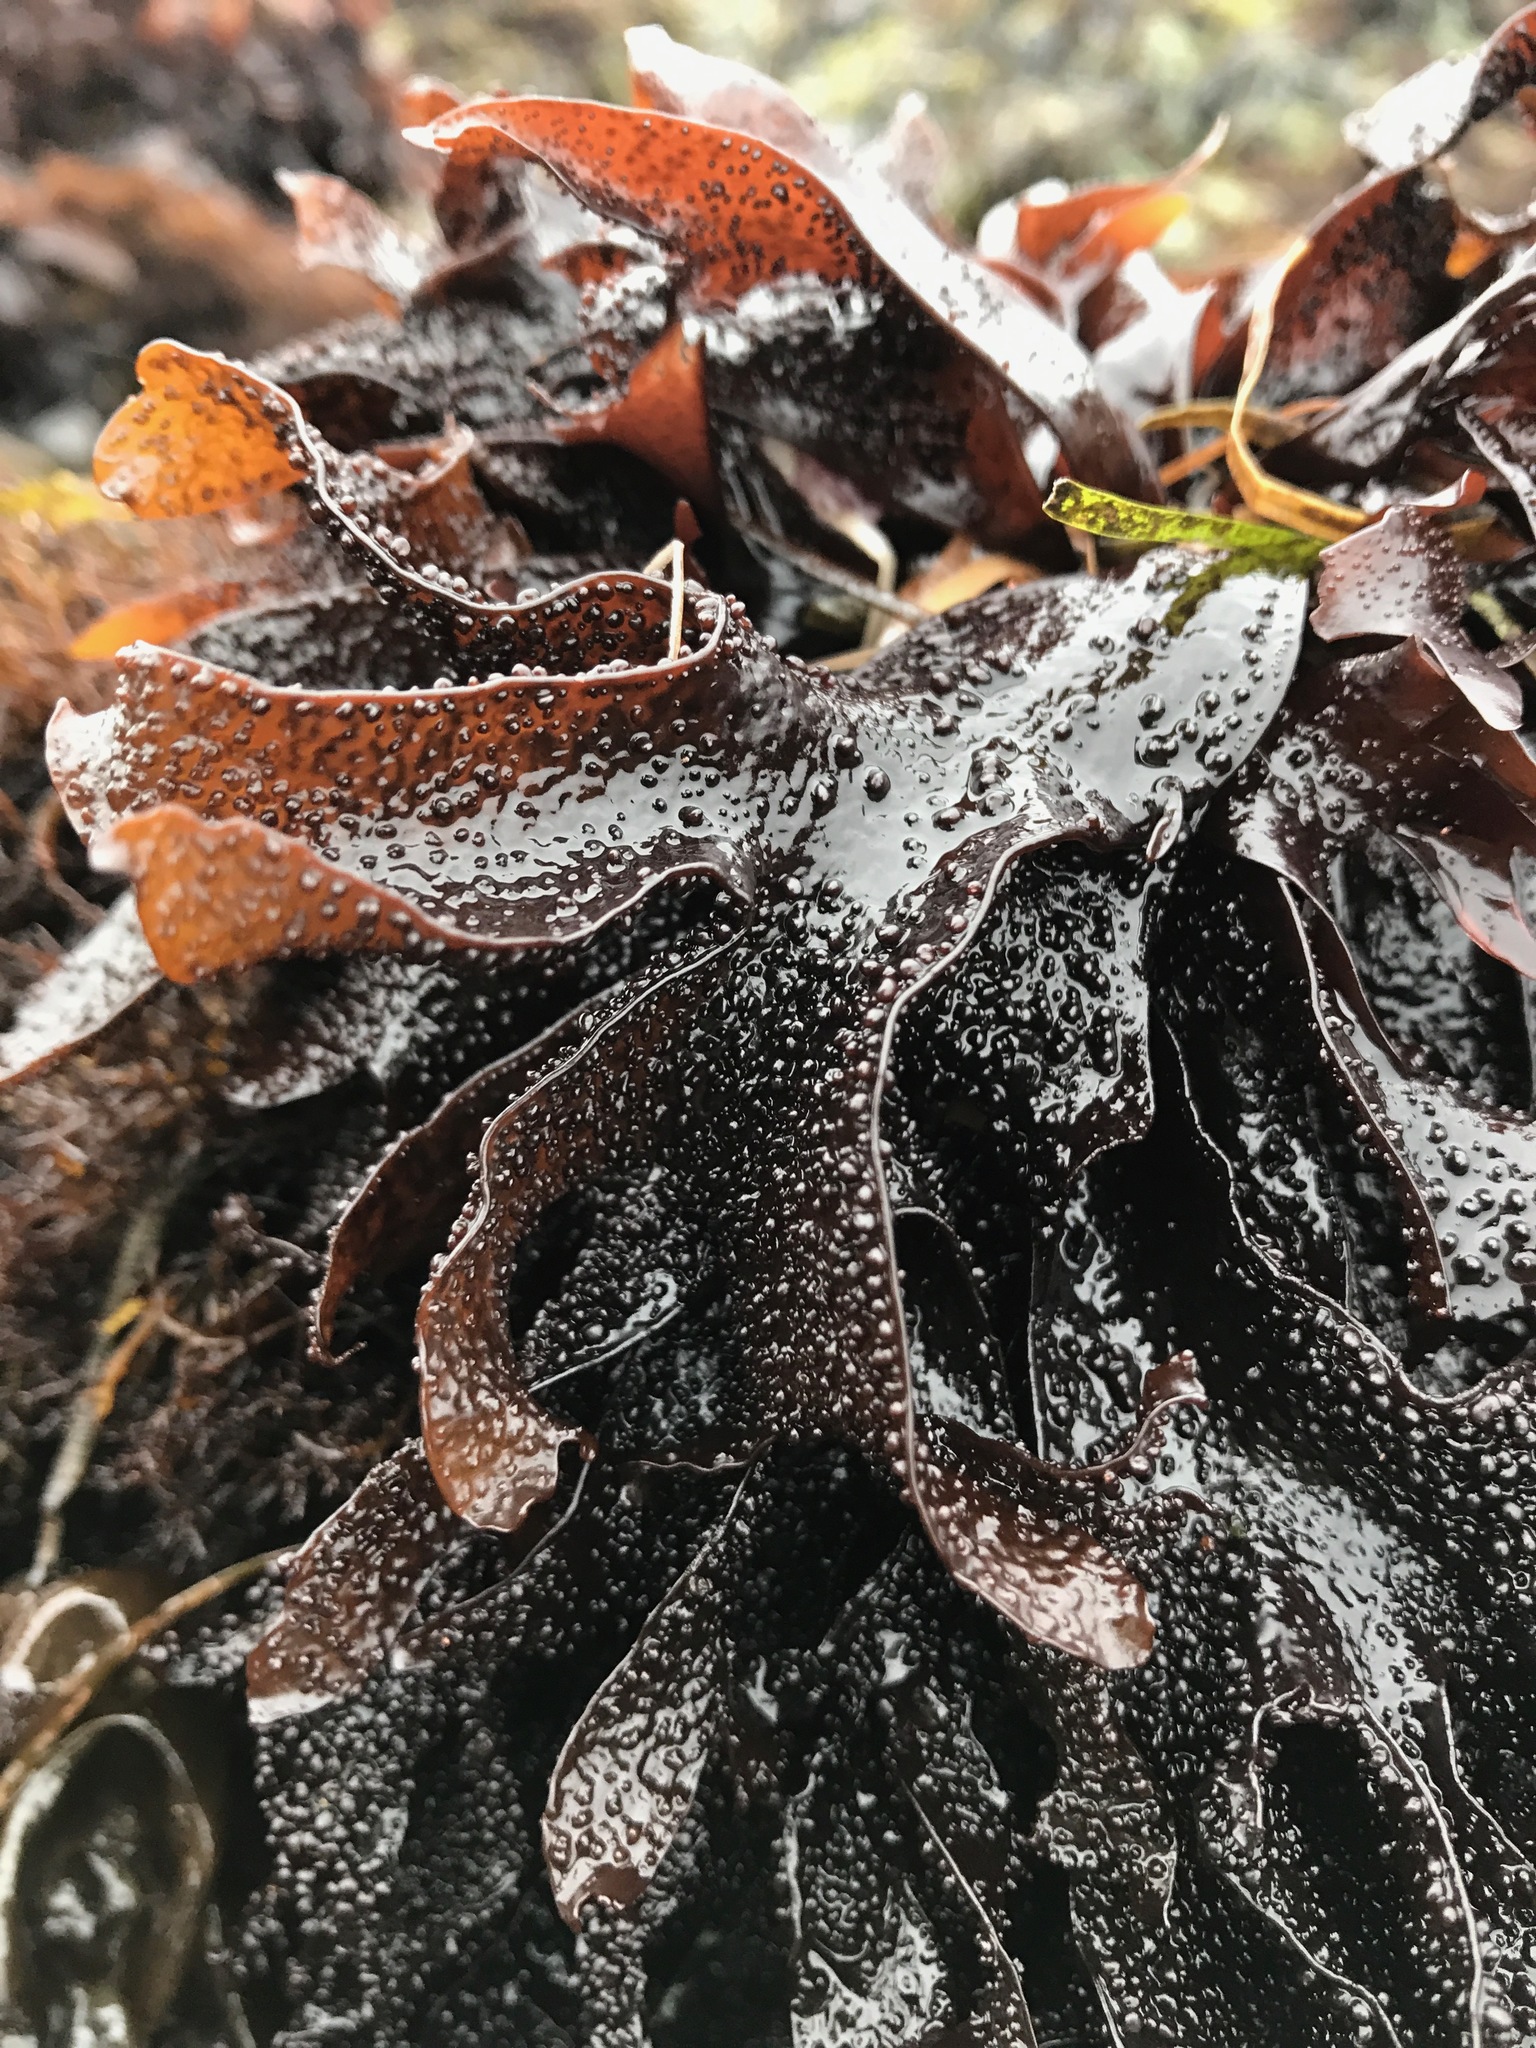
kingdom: Plantae
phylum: Rhodophyta
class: Florideophyceae
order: Gigartinales
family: Phyllophoraceae
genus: Mastocarpus
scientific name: Mastocarpus papillatus
